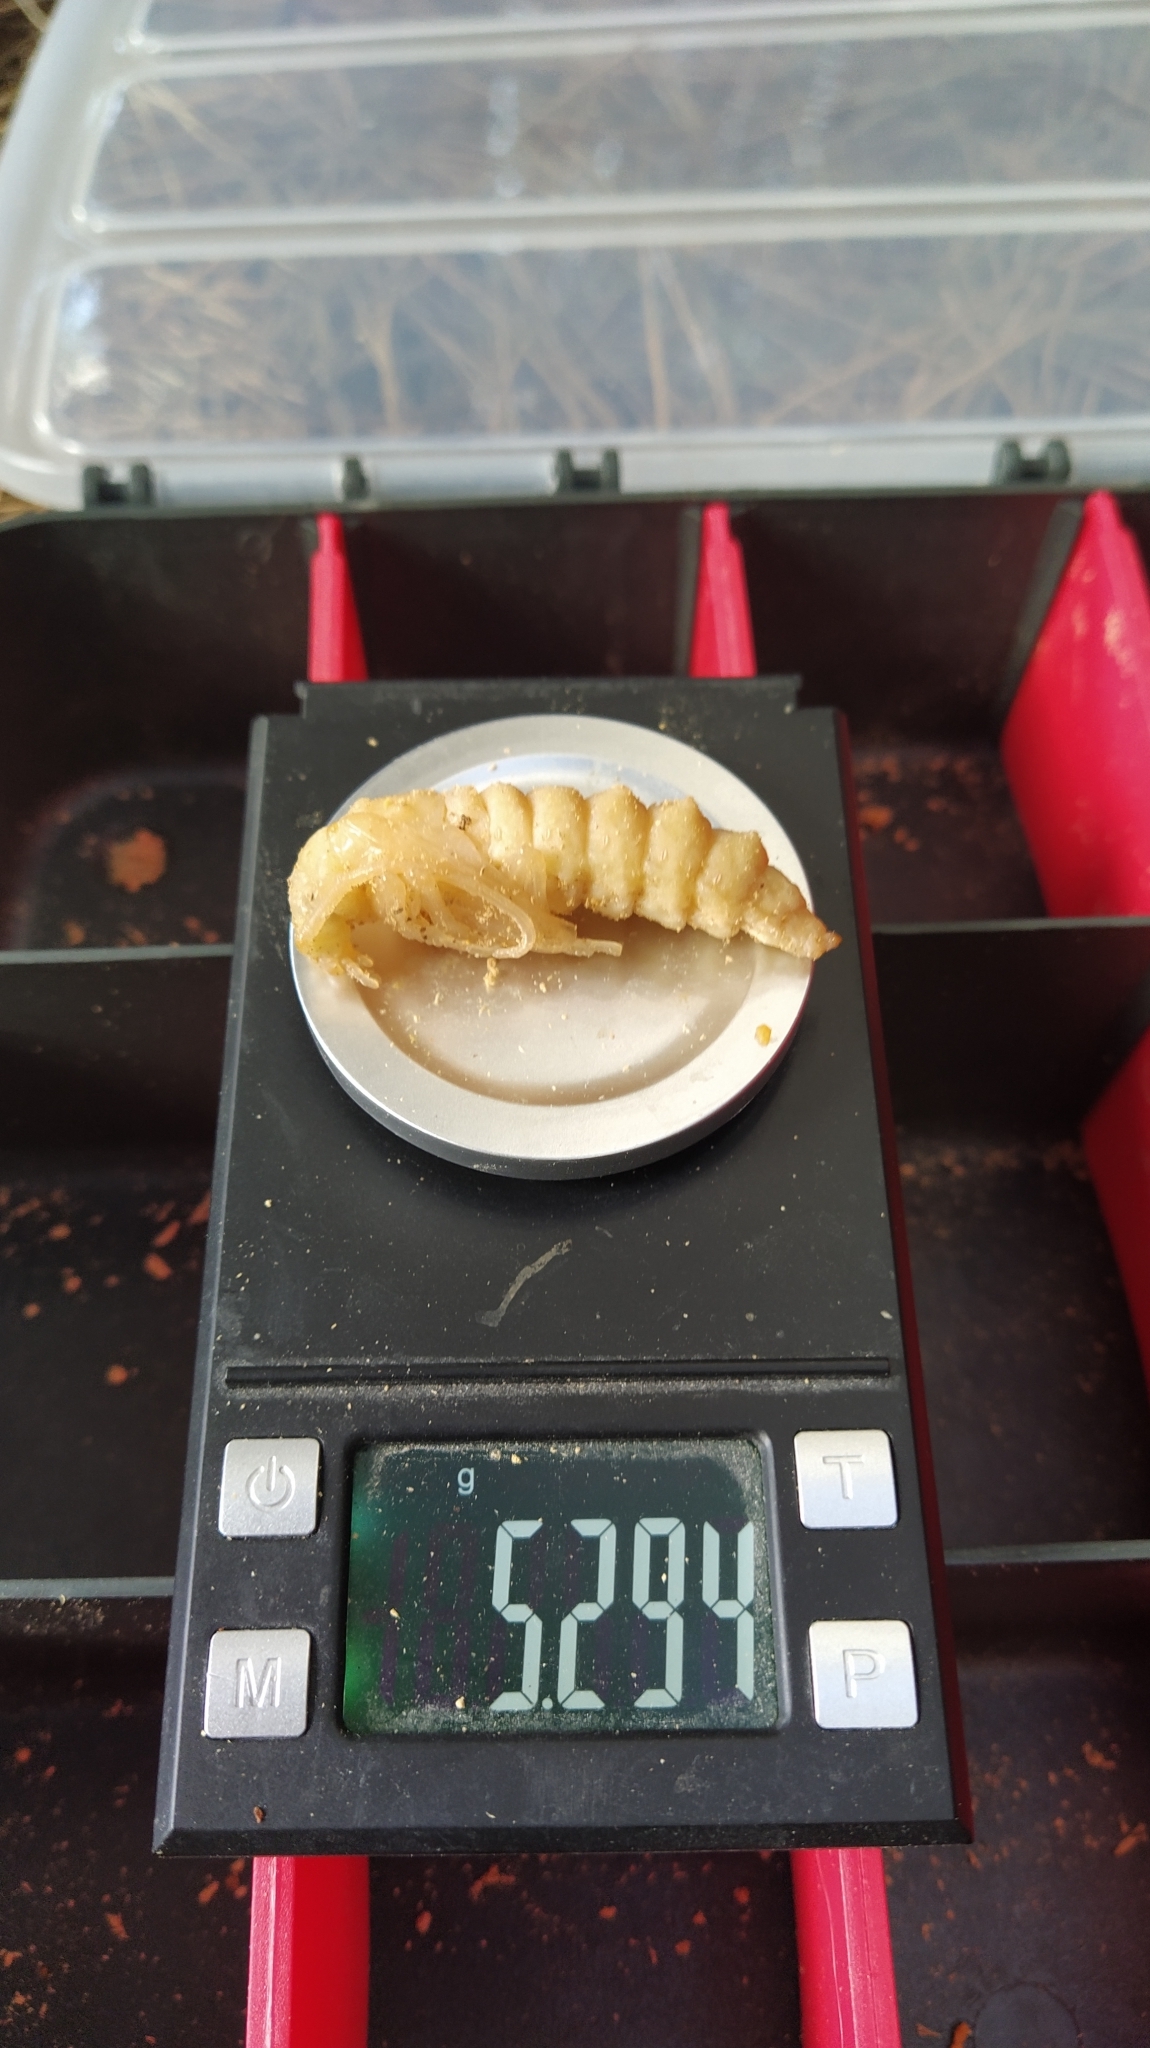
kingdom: Animalia
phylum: Arthropoda
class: Insecta
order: Coleoptera
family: Cerambycidae
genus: Prionoplus
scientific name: Prionoplus reticularis
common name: Huhu beetle
